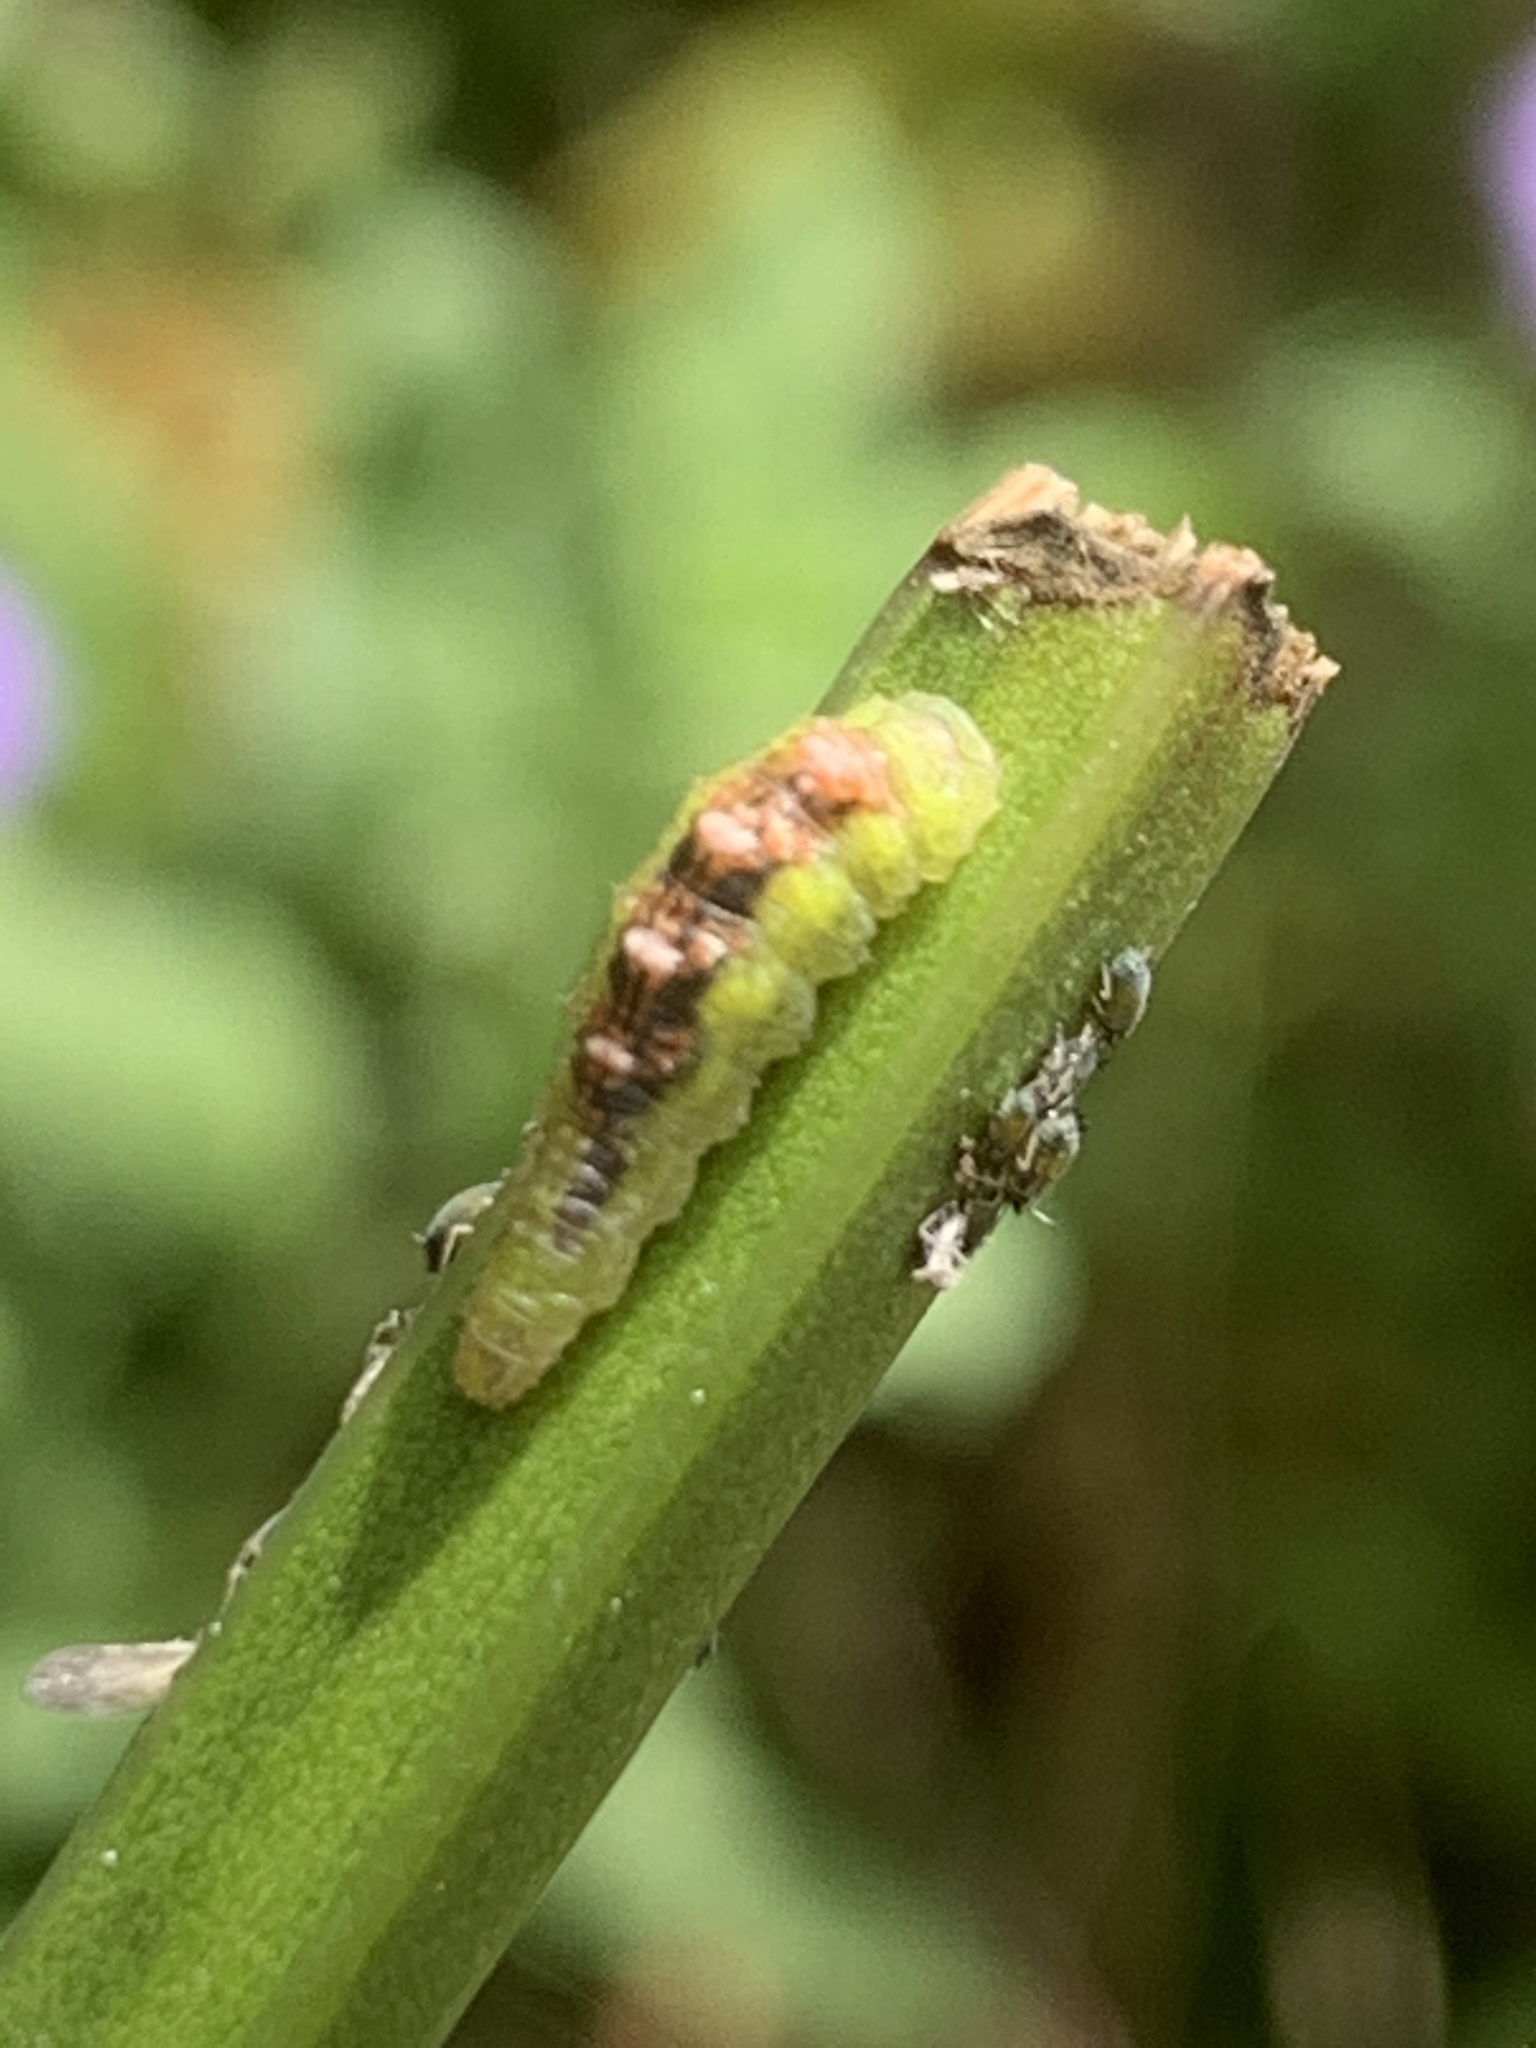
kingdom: Animalia
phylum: Arthropoda
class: Insecta
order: Diptera
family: Syrphidae
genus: Eupeodes
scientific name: Eupeodes pomus
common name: Short-tailed aphideater
